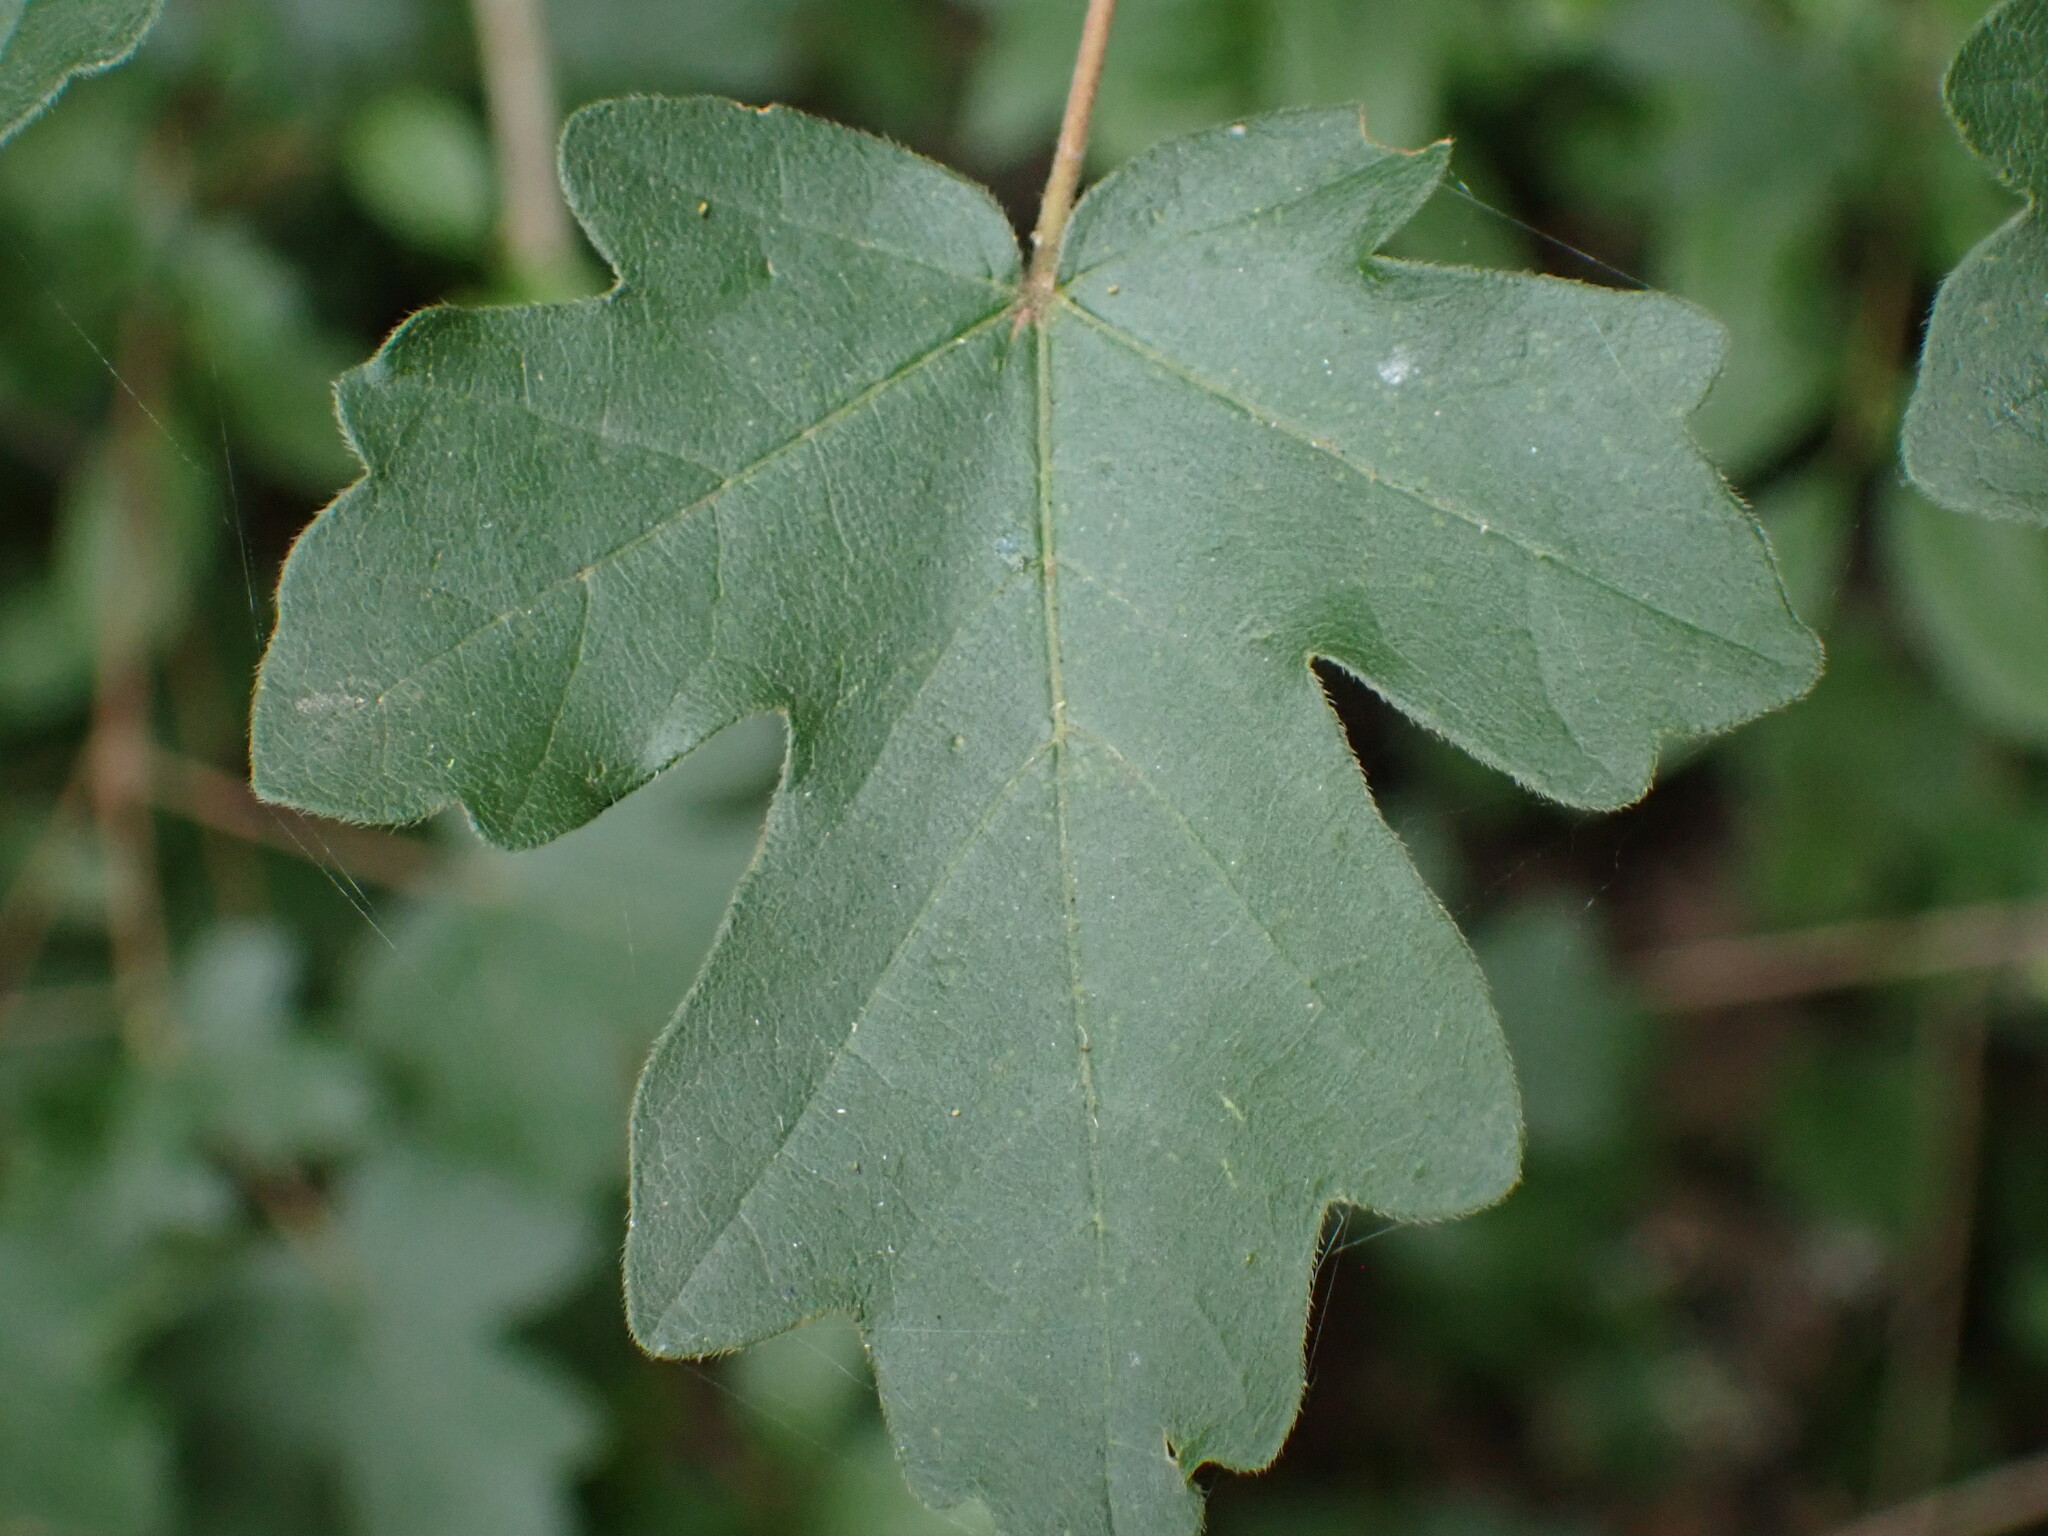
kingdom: Plantae
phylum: Tracheophyta
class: Magnoliopsida
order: Sapindales
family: Sapindaceae
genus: Acer
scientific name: Acer campestre
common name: Field maple
